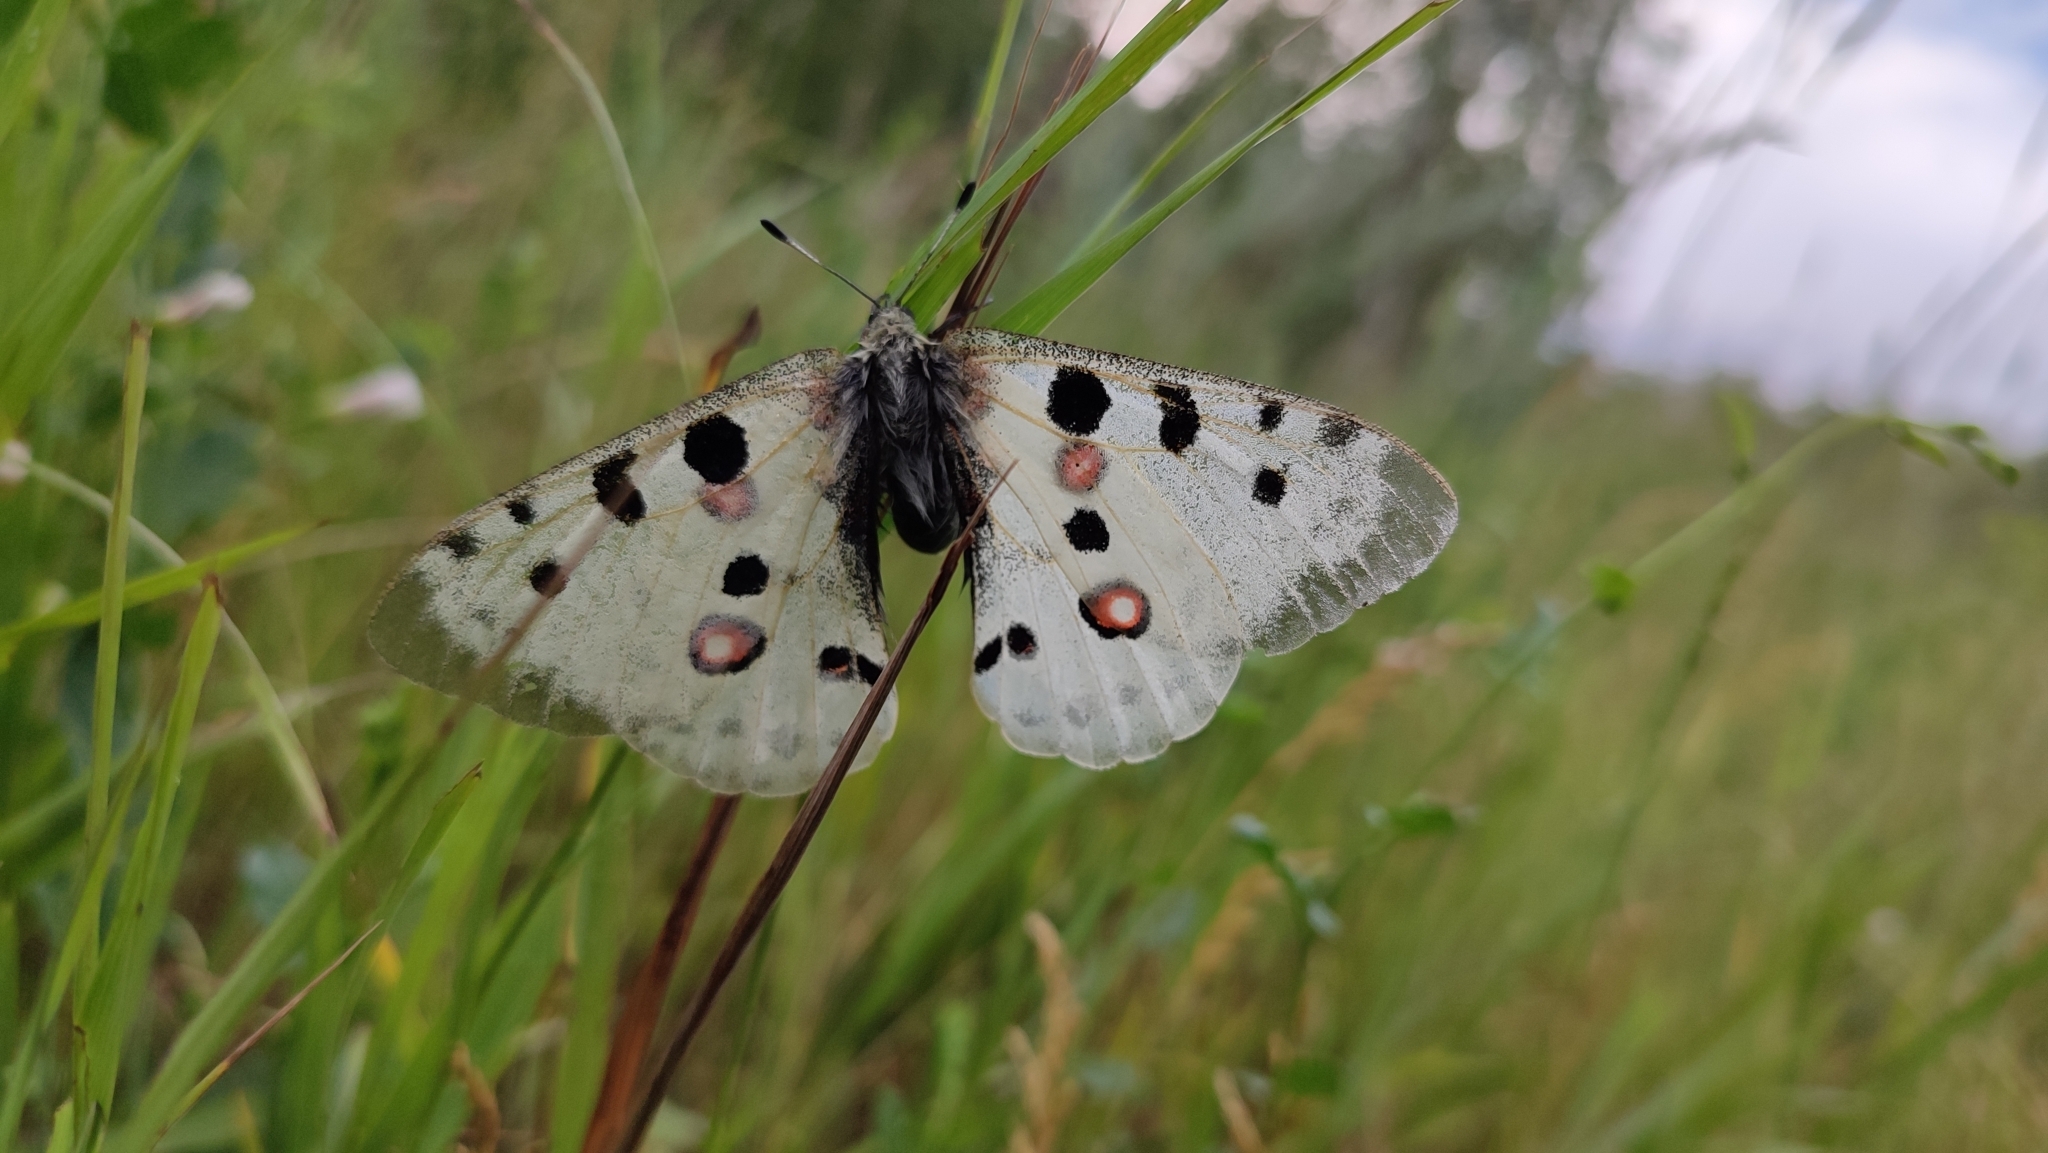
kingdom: Animalia
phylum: Arthropoda
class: Insecta
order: Lepidoptera
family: Papilionidae
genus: Parnassius
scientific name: Parnassius apollo
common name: Apollo
